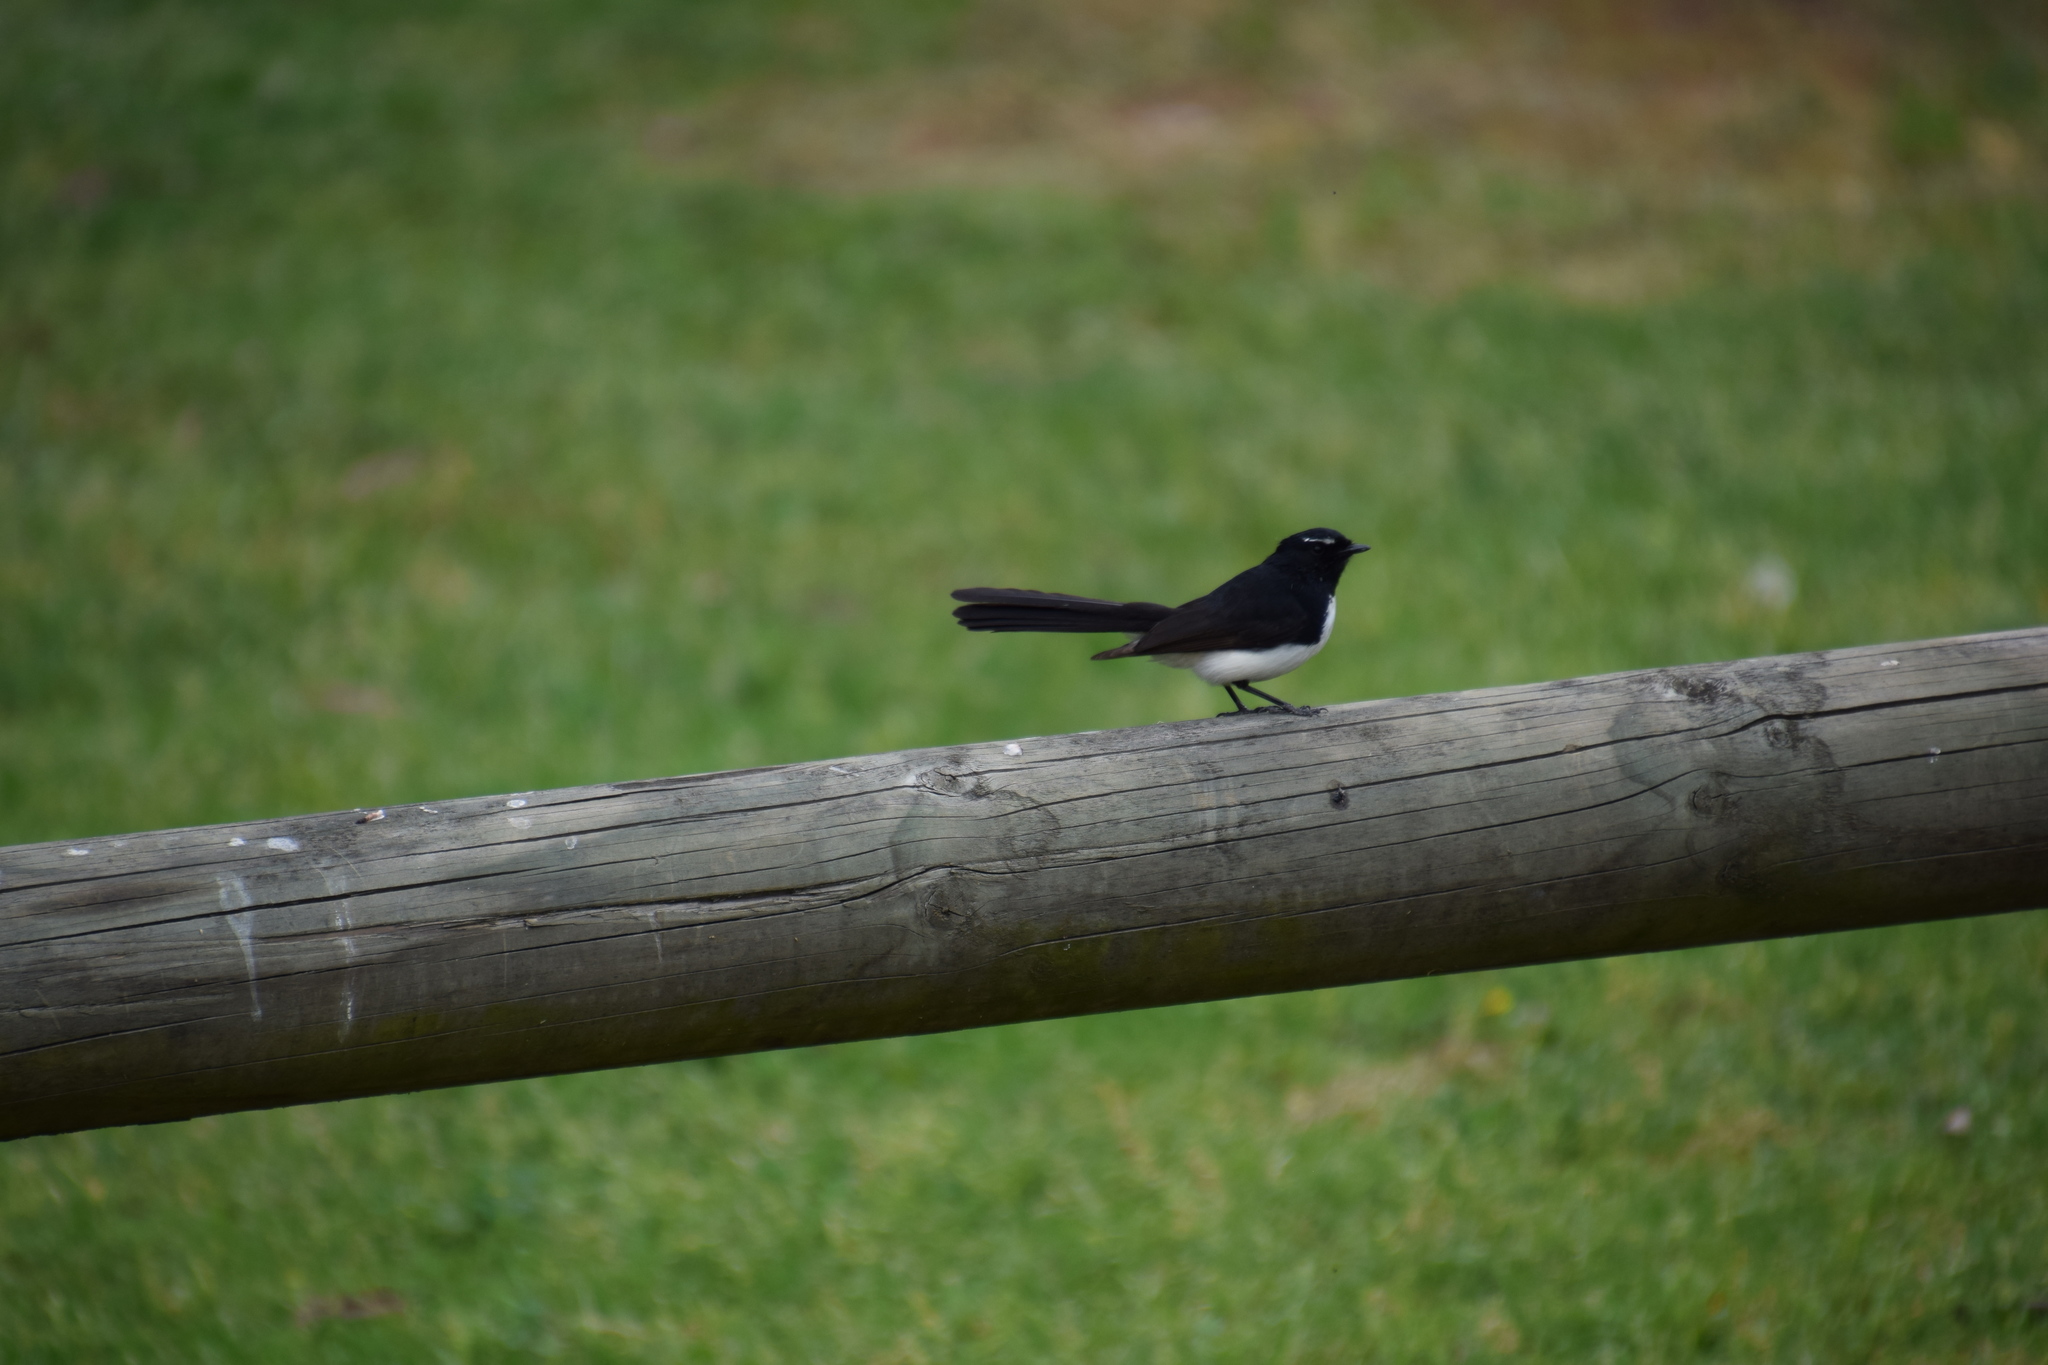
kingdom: Animalia
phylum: Chordata
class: Aves
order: Passeriformes
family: Rhipiduridae
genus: Rhipidura
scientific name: Rhipidura leucophrys
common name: Willie wagtail
